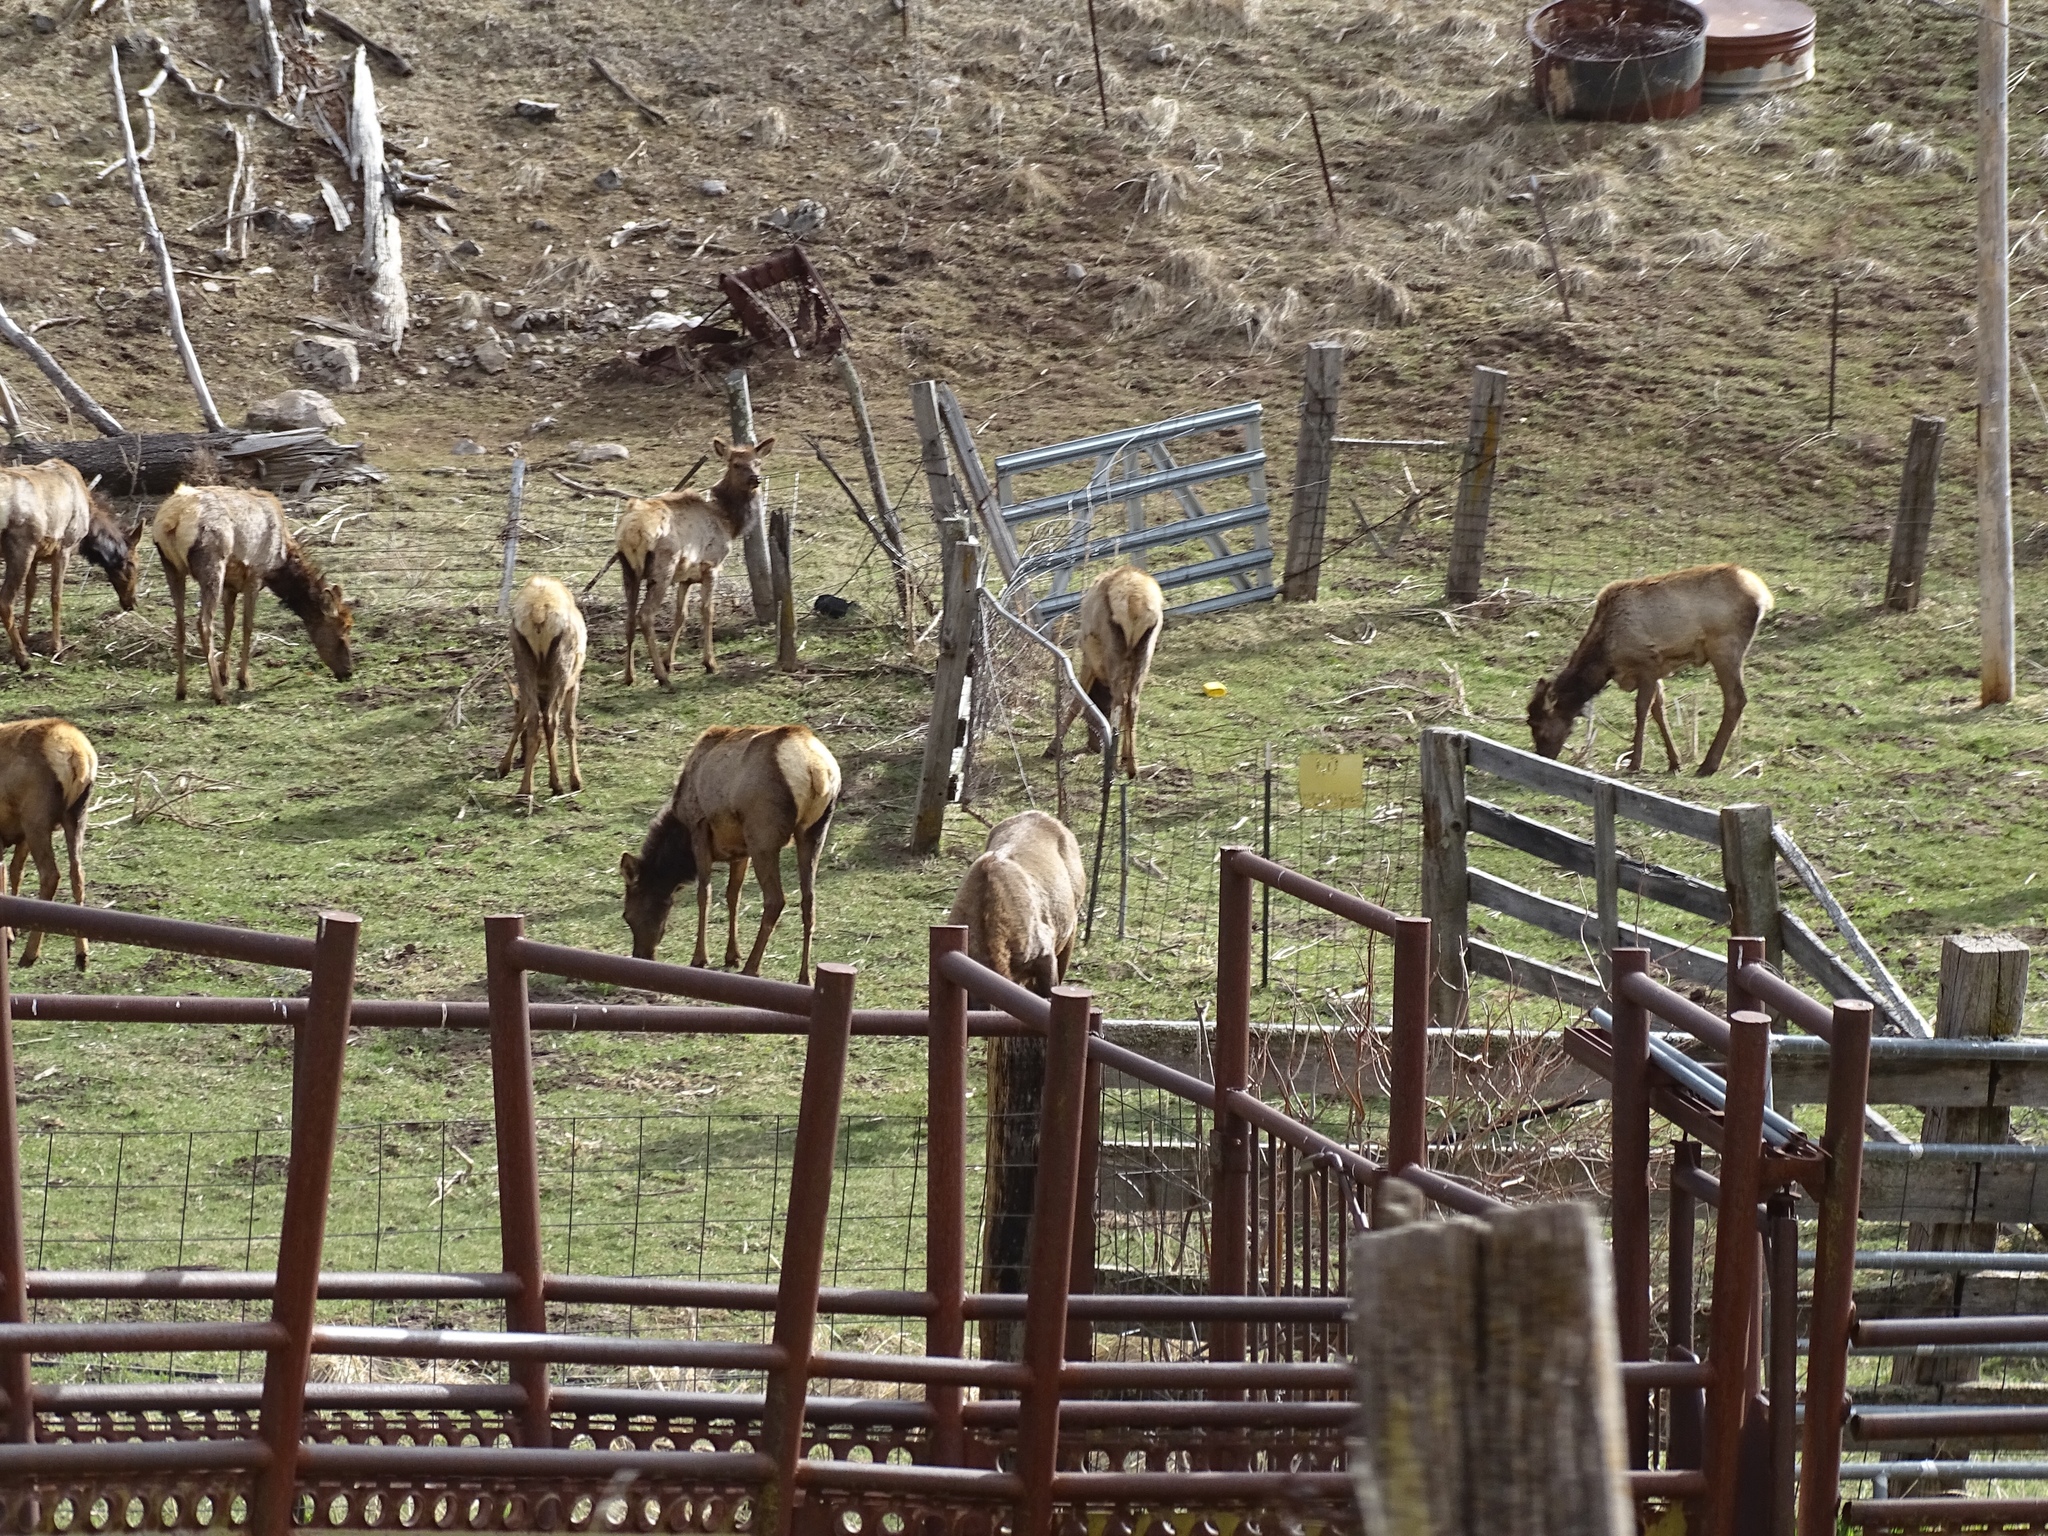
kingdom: Animalia
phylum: Chordata
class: Mammalia
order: Artiodactyla
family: Cervidae
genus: Cervus
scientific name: Cervus elaphus
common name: Red deer
